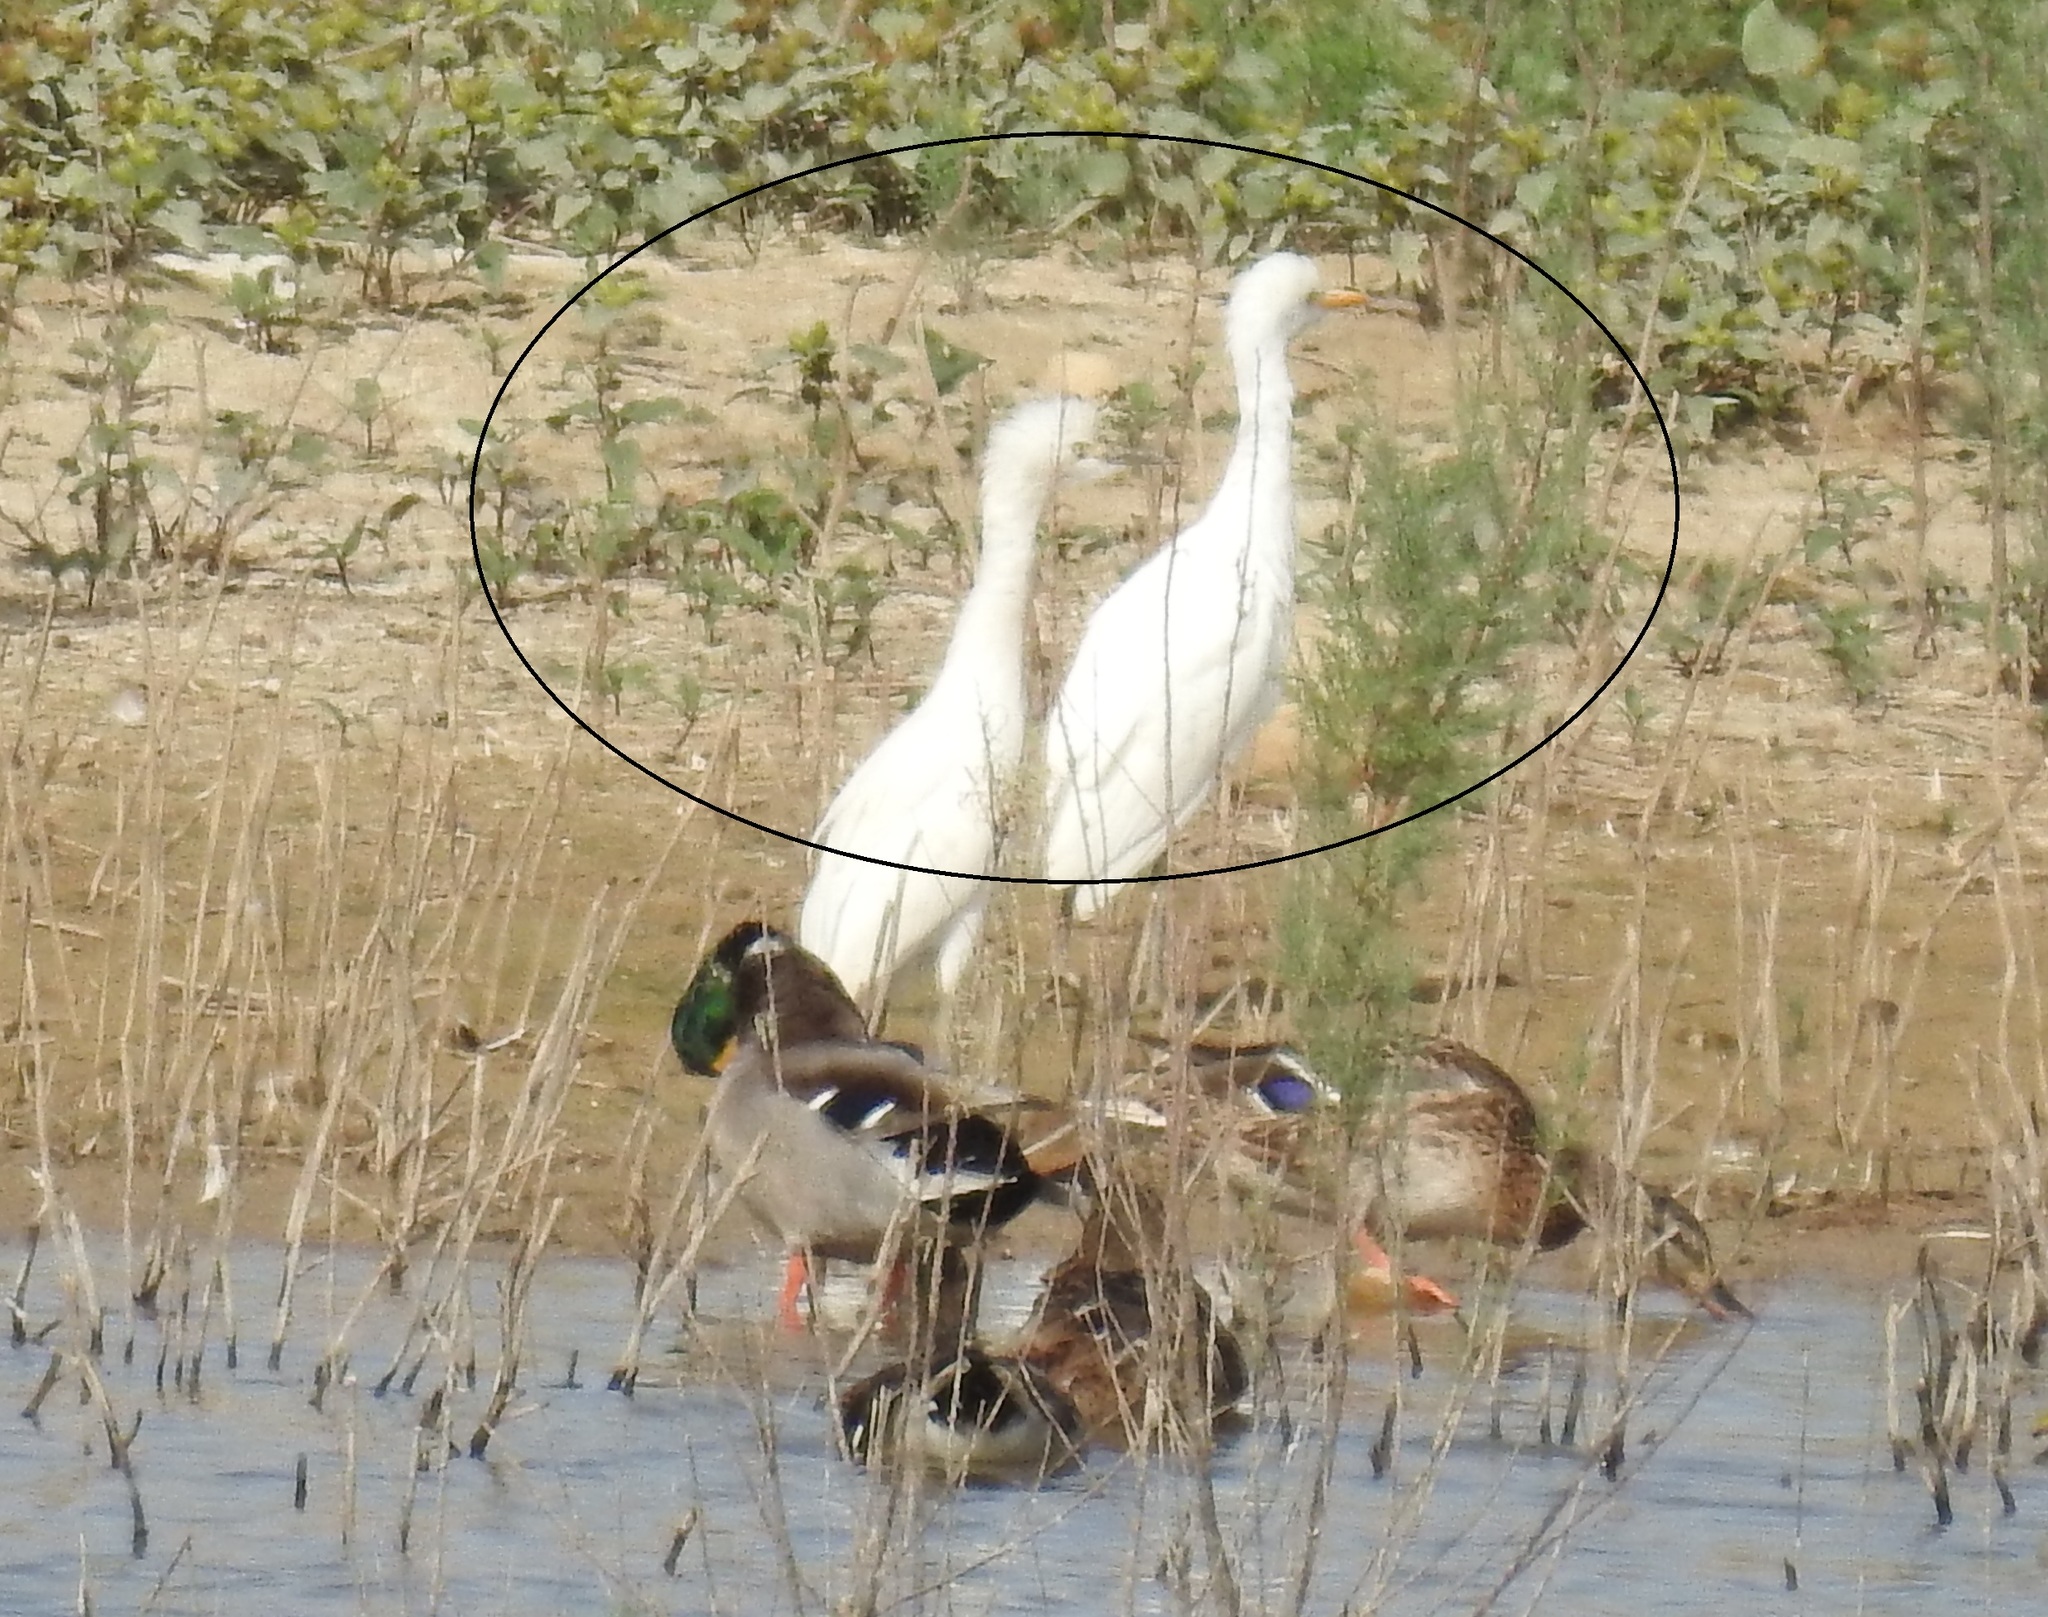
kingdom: Animalia
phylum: Chordata
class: Aves
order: Pelecaniformes
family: Ardeidae
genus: Bubulcus
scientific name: Bubulcus ibis
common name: Cattle egret
